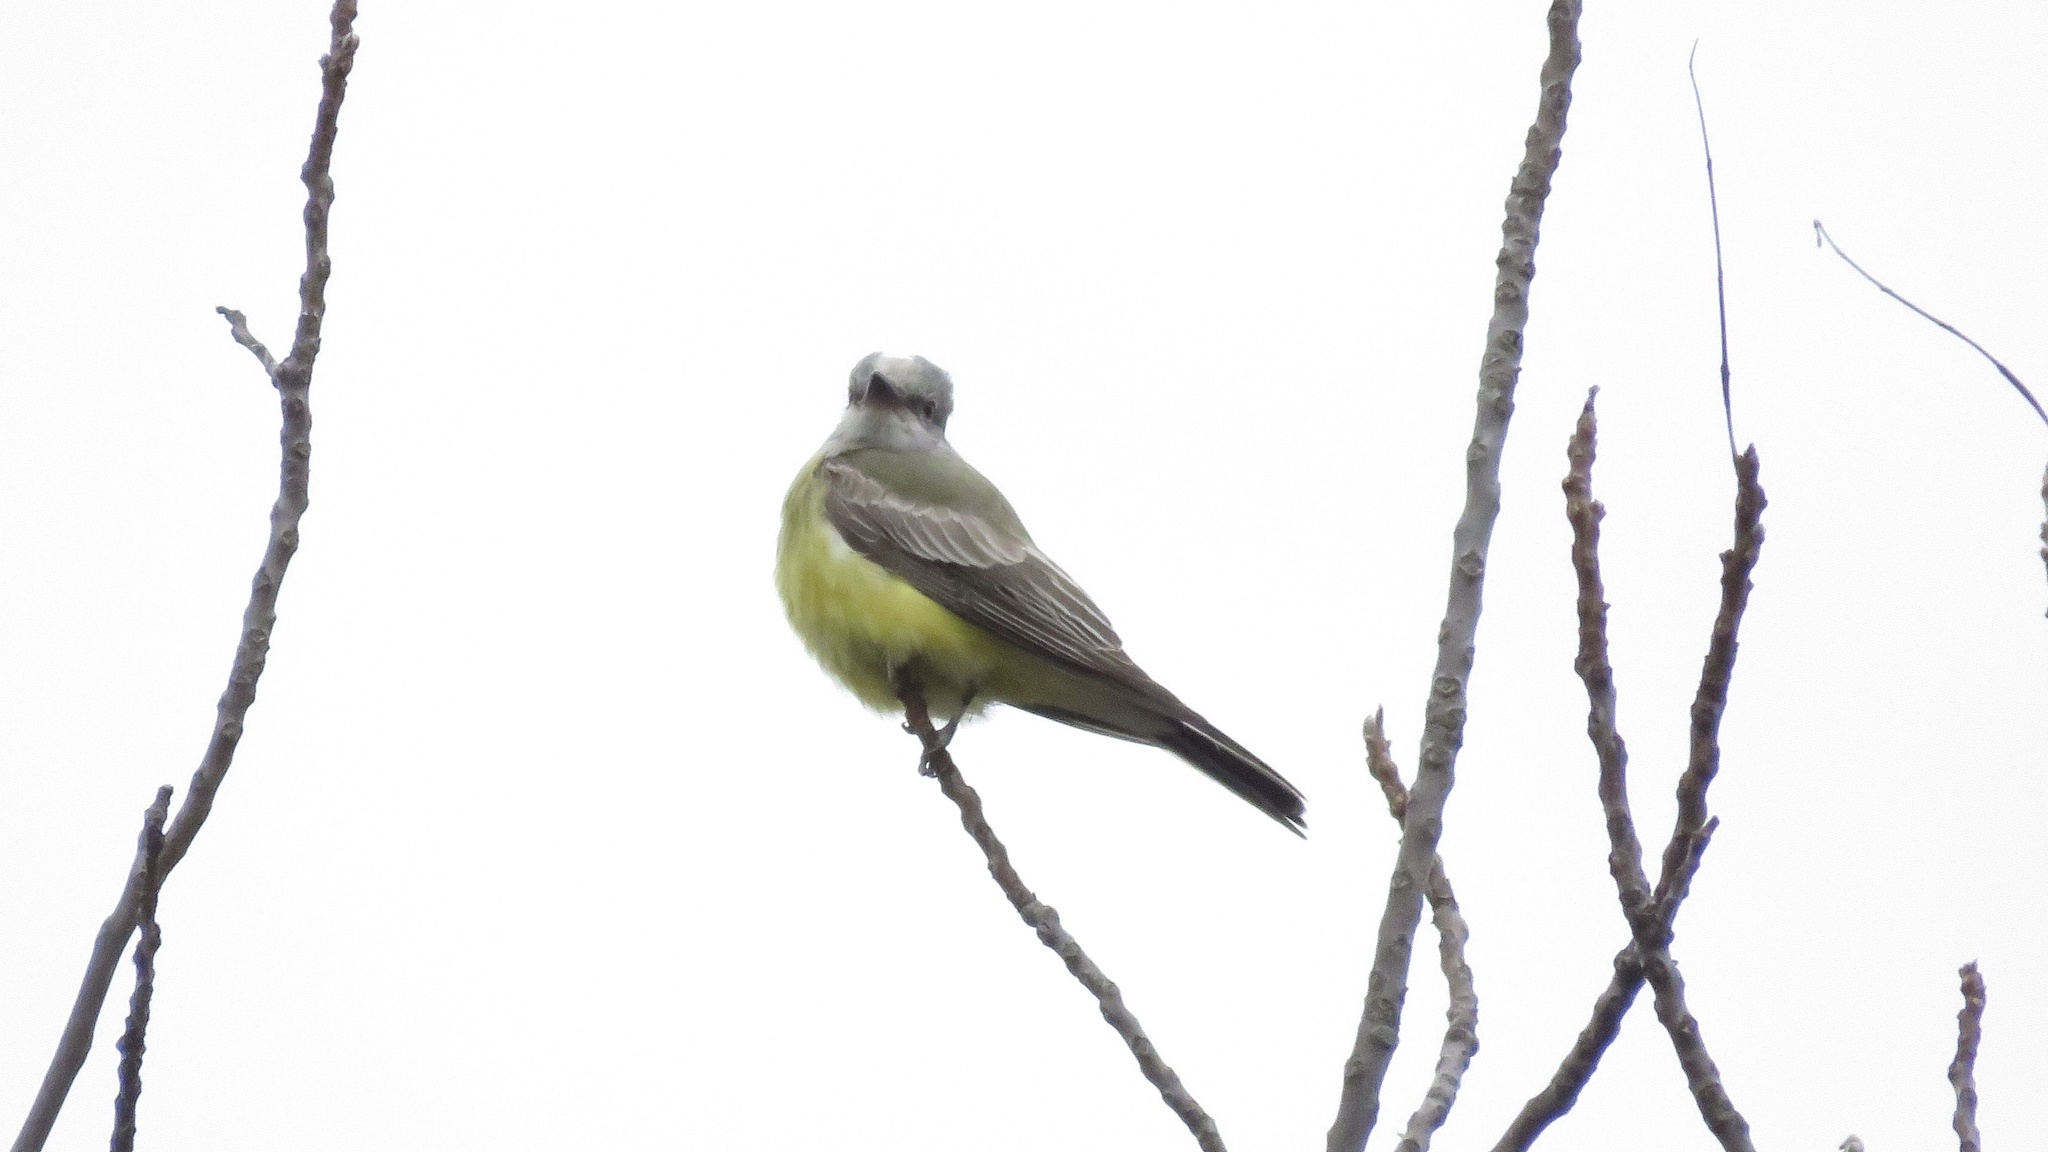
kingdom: Animalia
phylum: Chordata
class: Aves
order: Passeriformes
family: Tyrannidae
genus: Tyrannus
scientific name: Tyrannus verticalis
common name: Western kingbird
